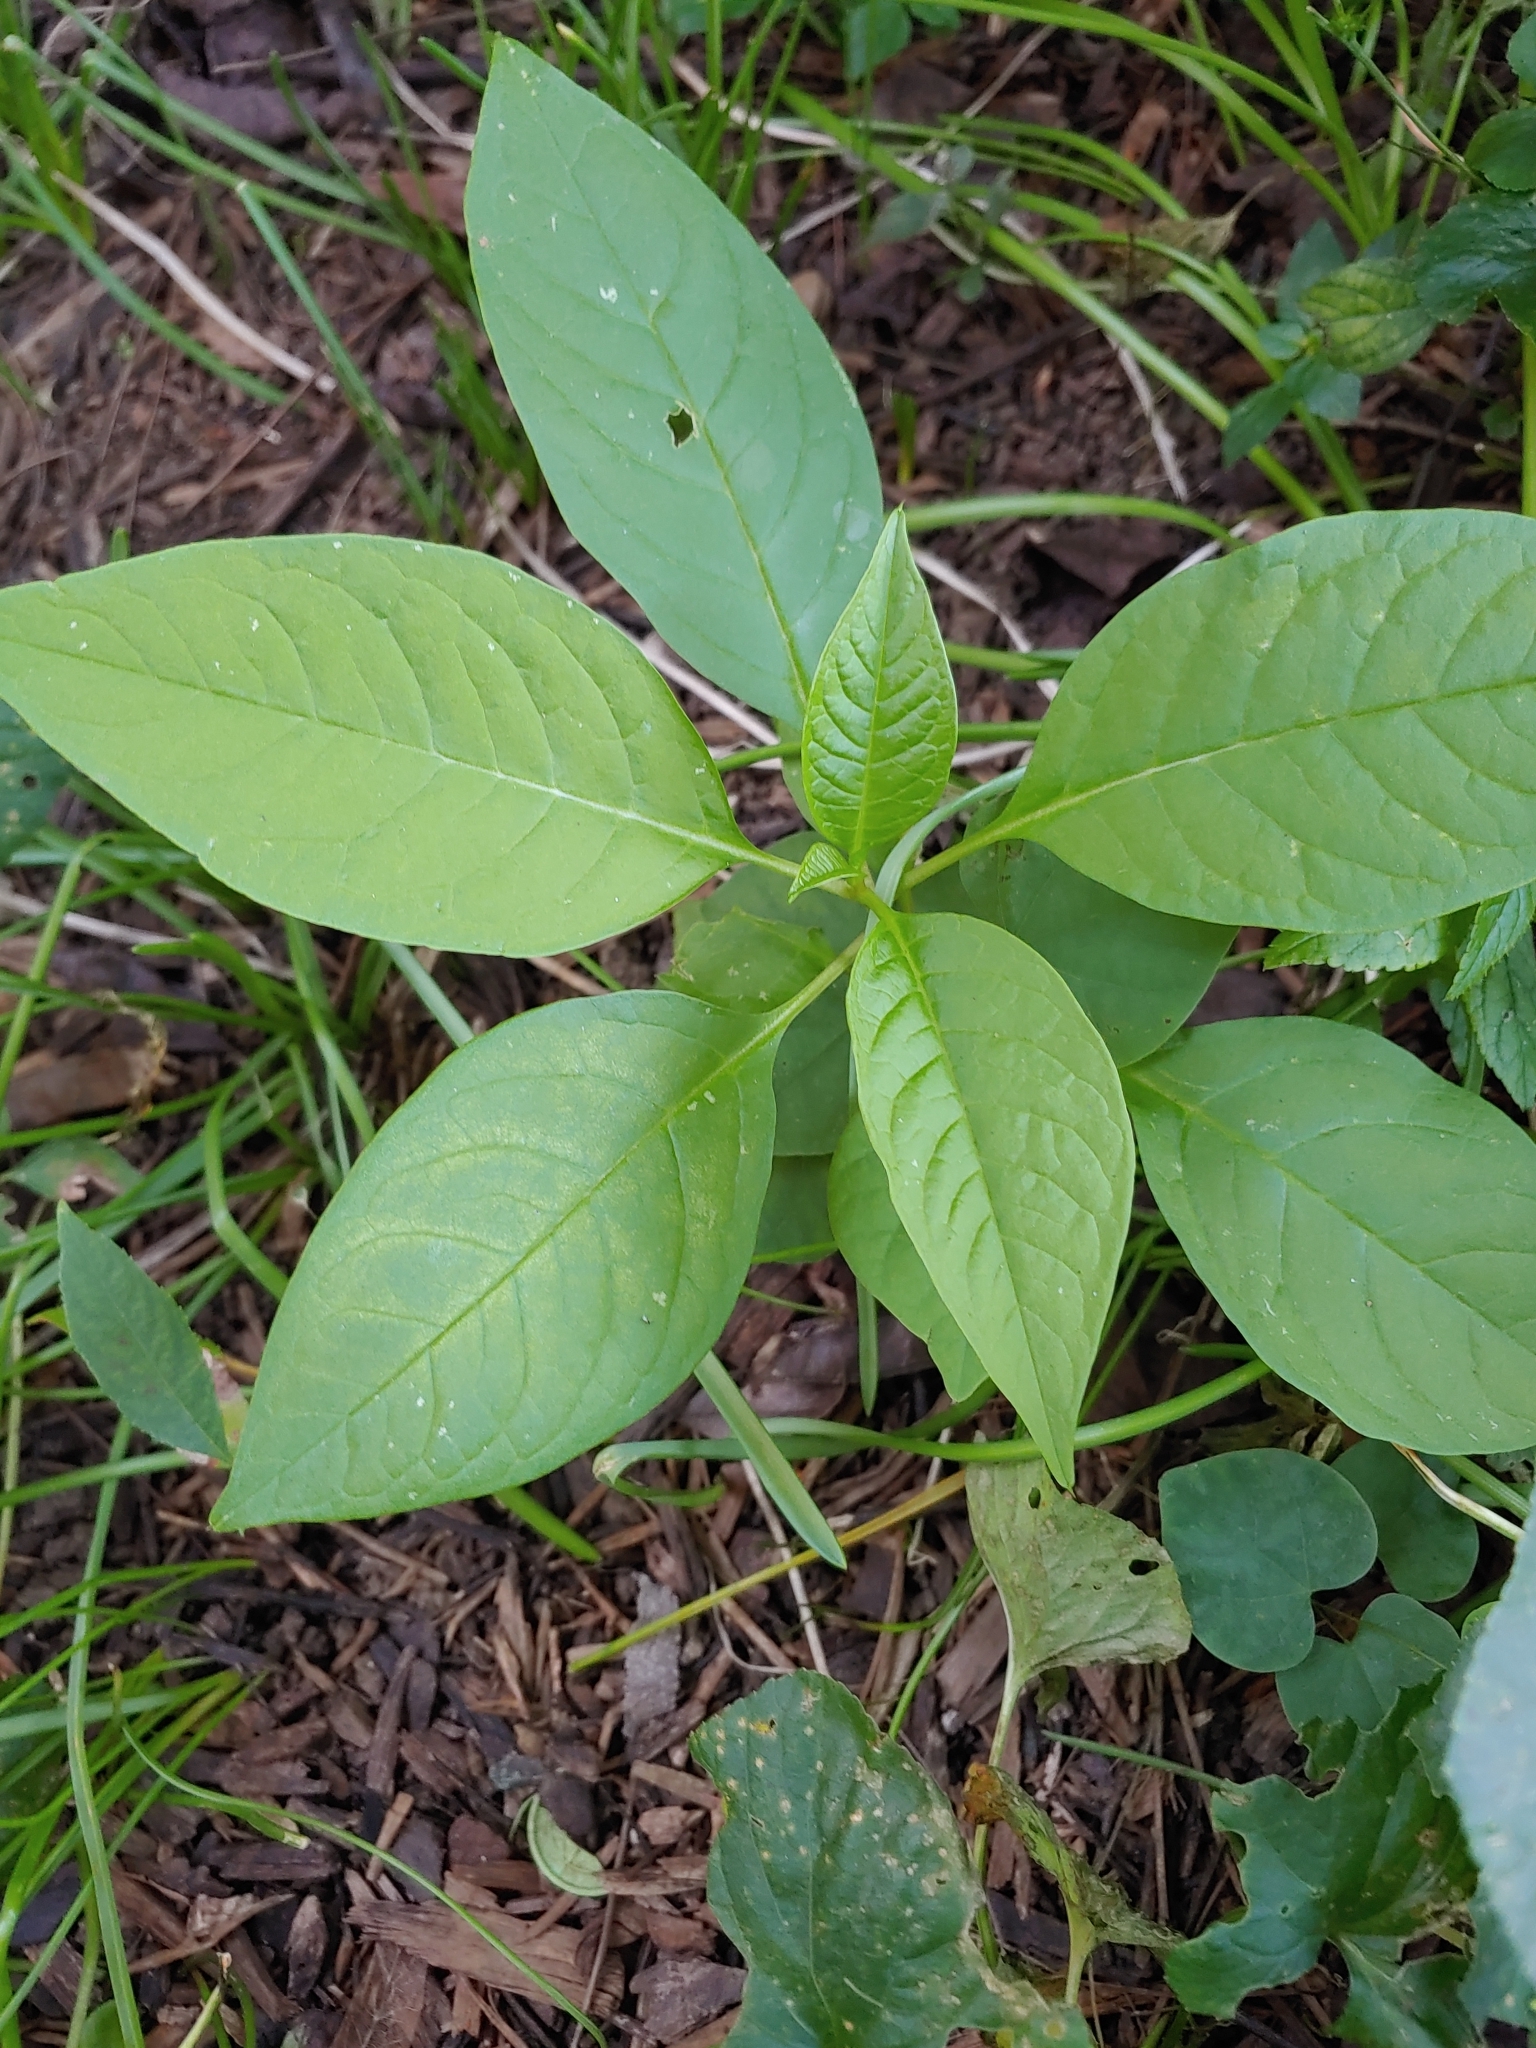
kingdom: Plantae
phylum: Tracheophyta
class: Magnoliopsida
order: Caryophyllales
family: Phytolaccaceae
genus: Phytolacca
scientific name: Phytolacca americana
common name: American pokeweed
